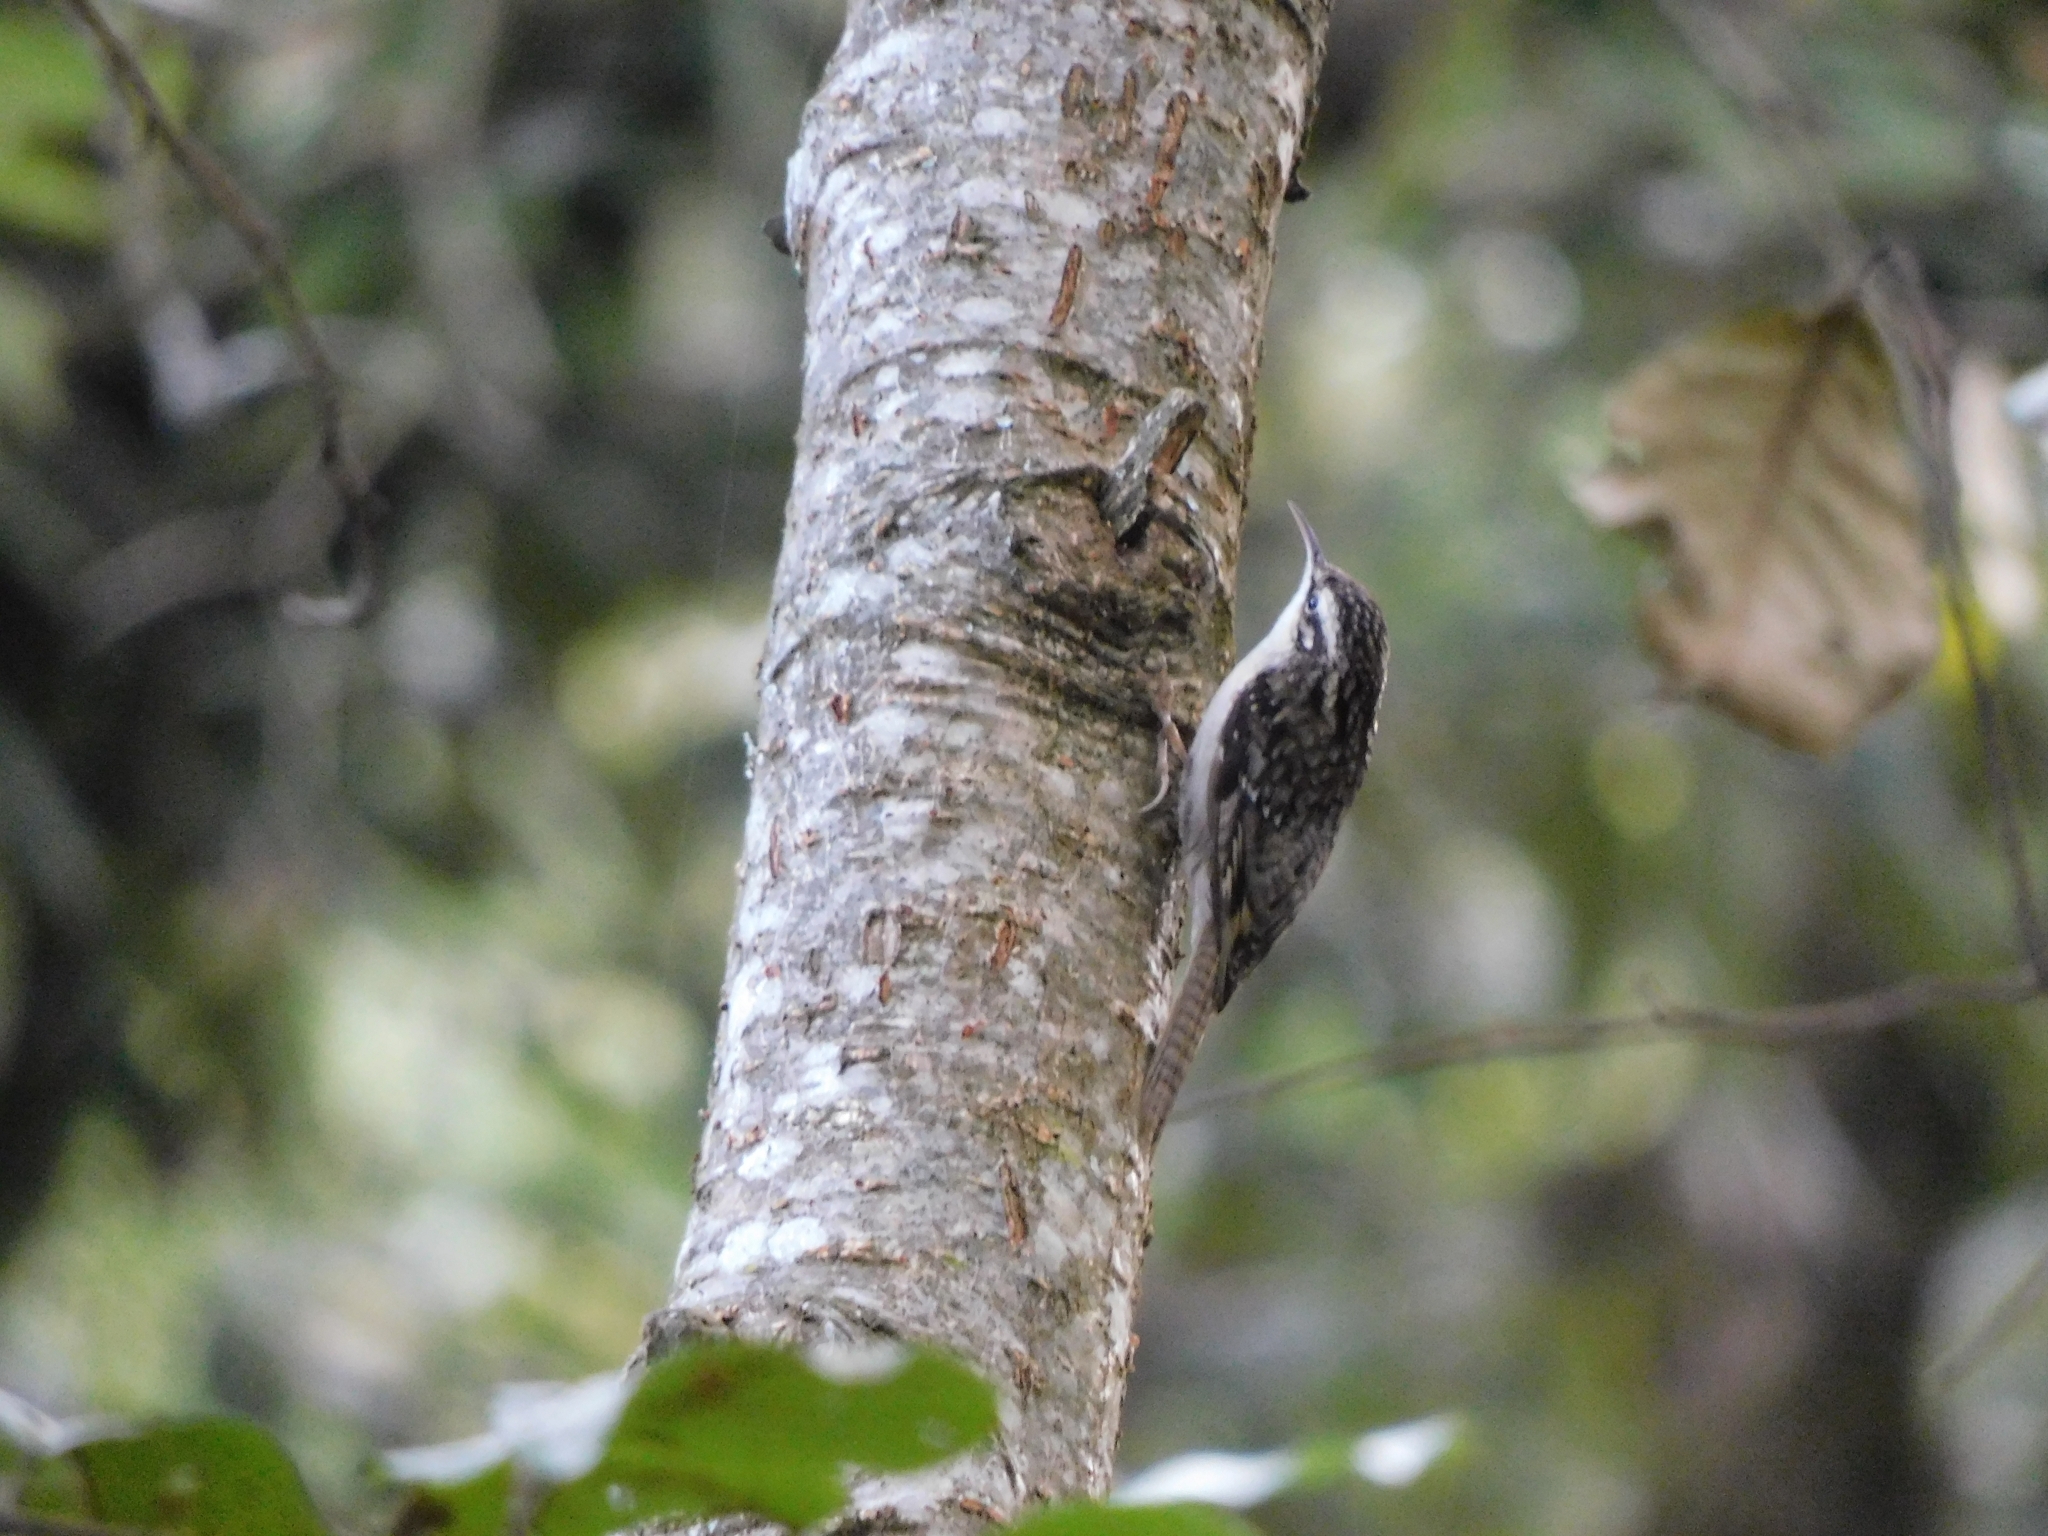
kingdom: Animalia
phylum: Chordata
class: Aves
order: Passeriformes
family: Certhiidae
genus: Certhia
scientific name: Certhia himalayana
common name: Bar-tailed treecreeper
